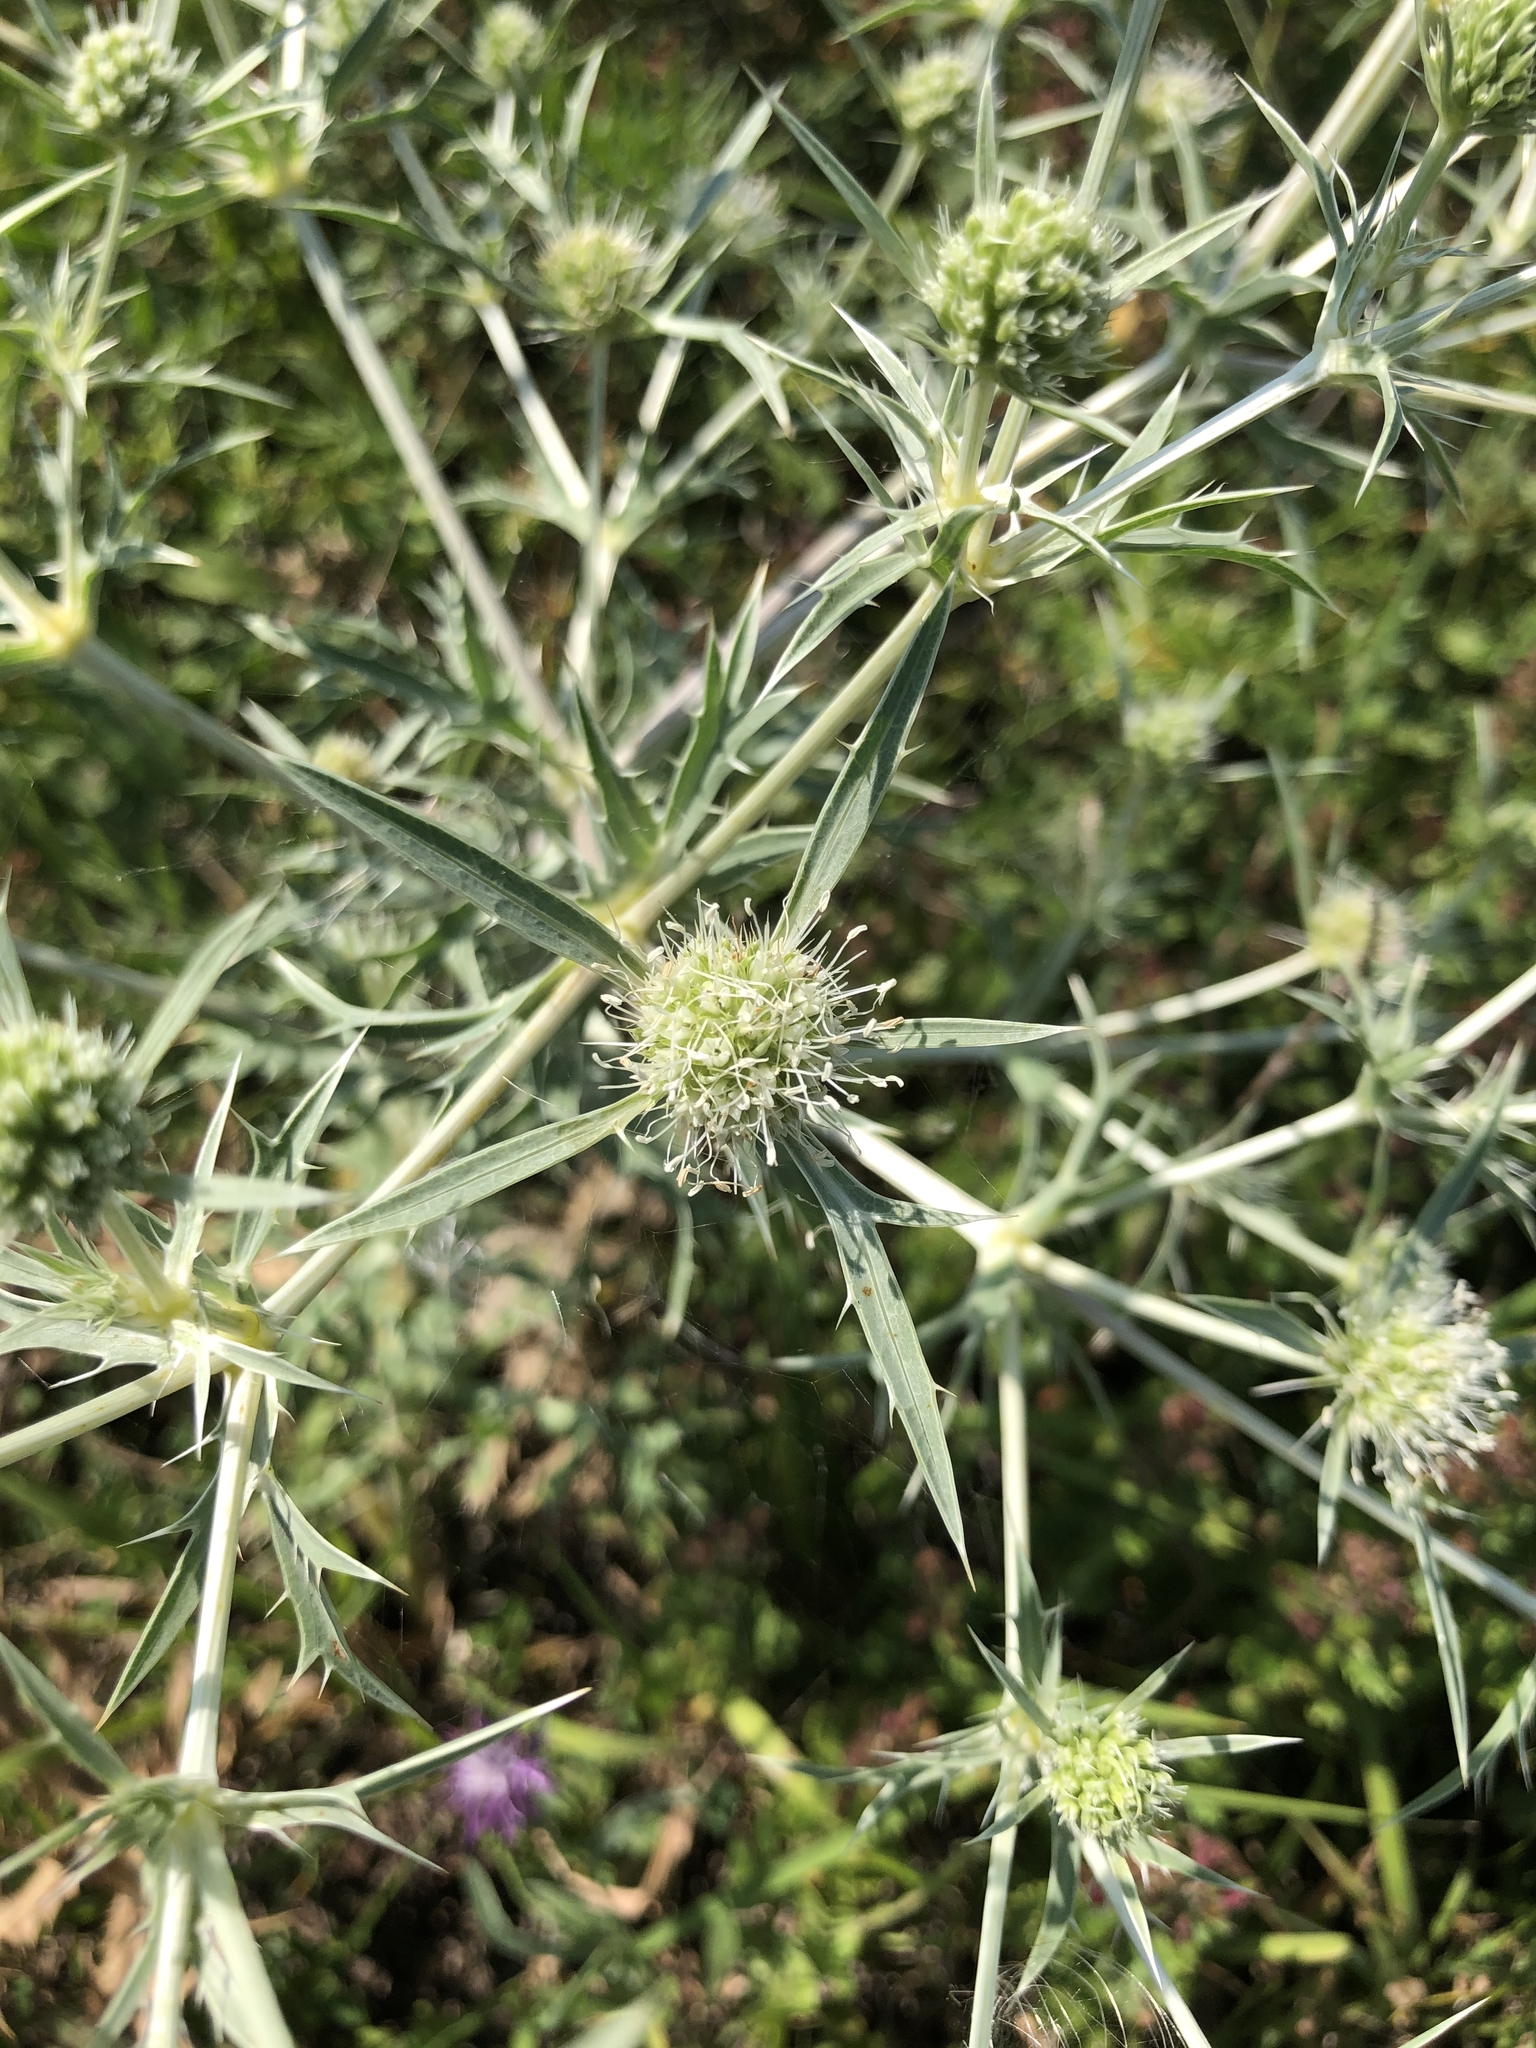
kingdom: Plantae
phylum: Tracheophyta
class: Magnoliopsida
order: Apiales
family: Apiaceae
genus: Eryngium
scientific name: Eryngium campestre
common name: Field eryngo
